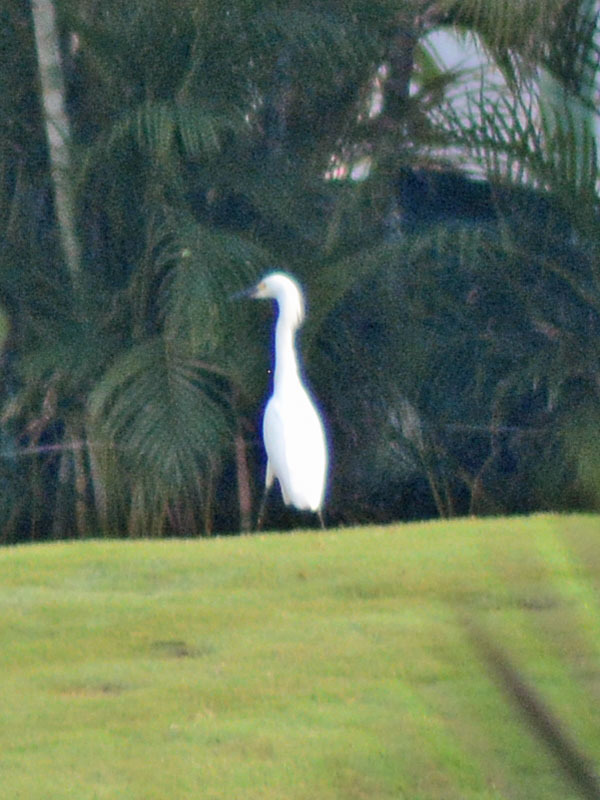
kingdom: Animalia
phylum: Chordata
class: Aves
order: Pelecaniformes
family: Ardeidae
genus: Egretta
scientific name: Egretta thula
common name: Snowy egret
